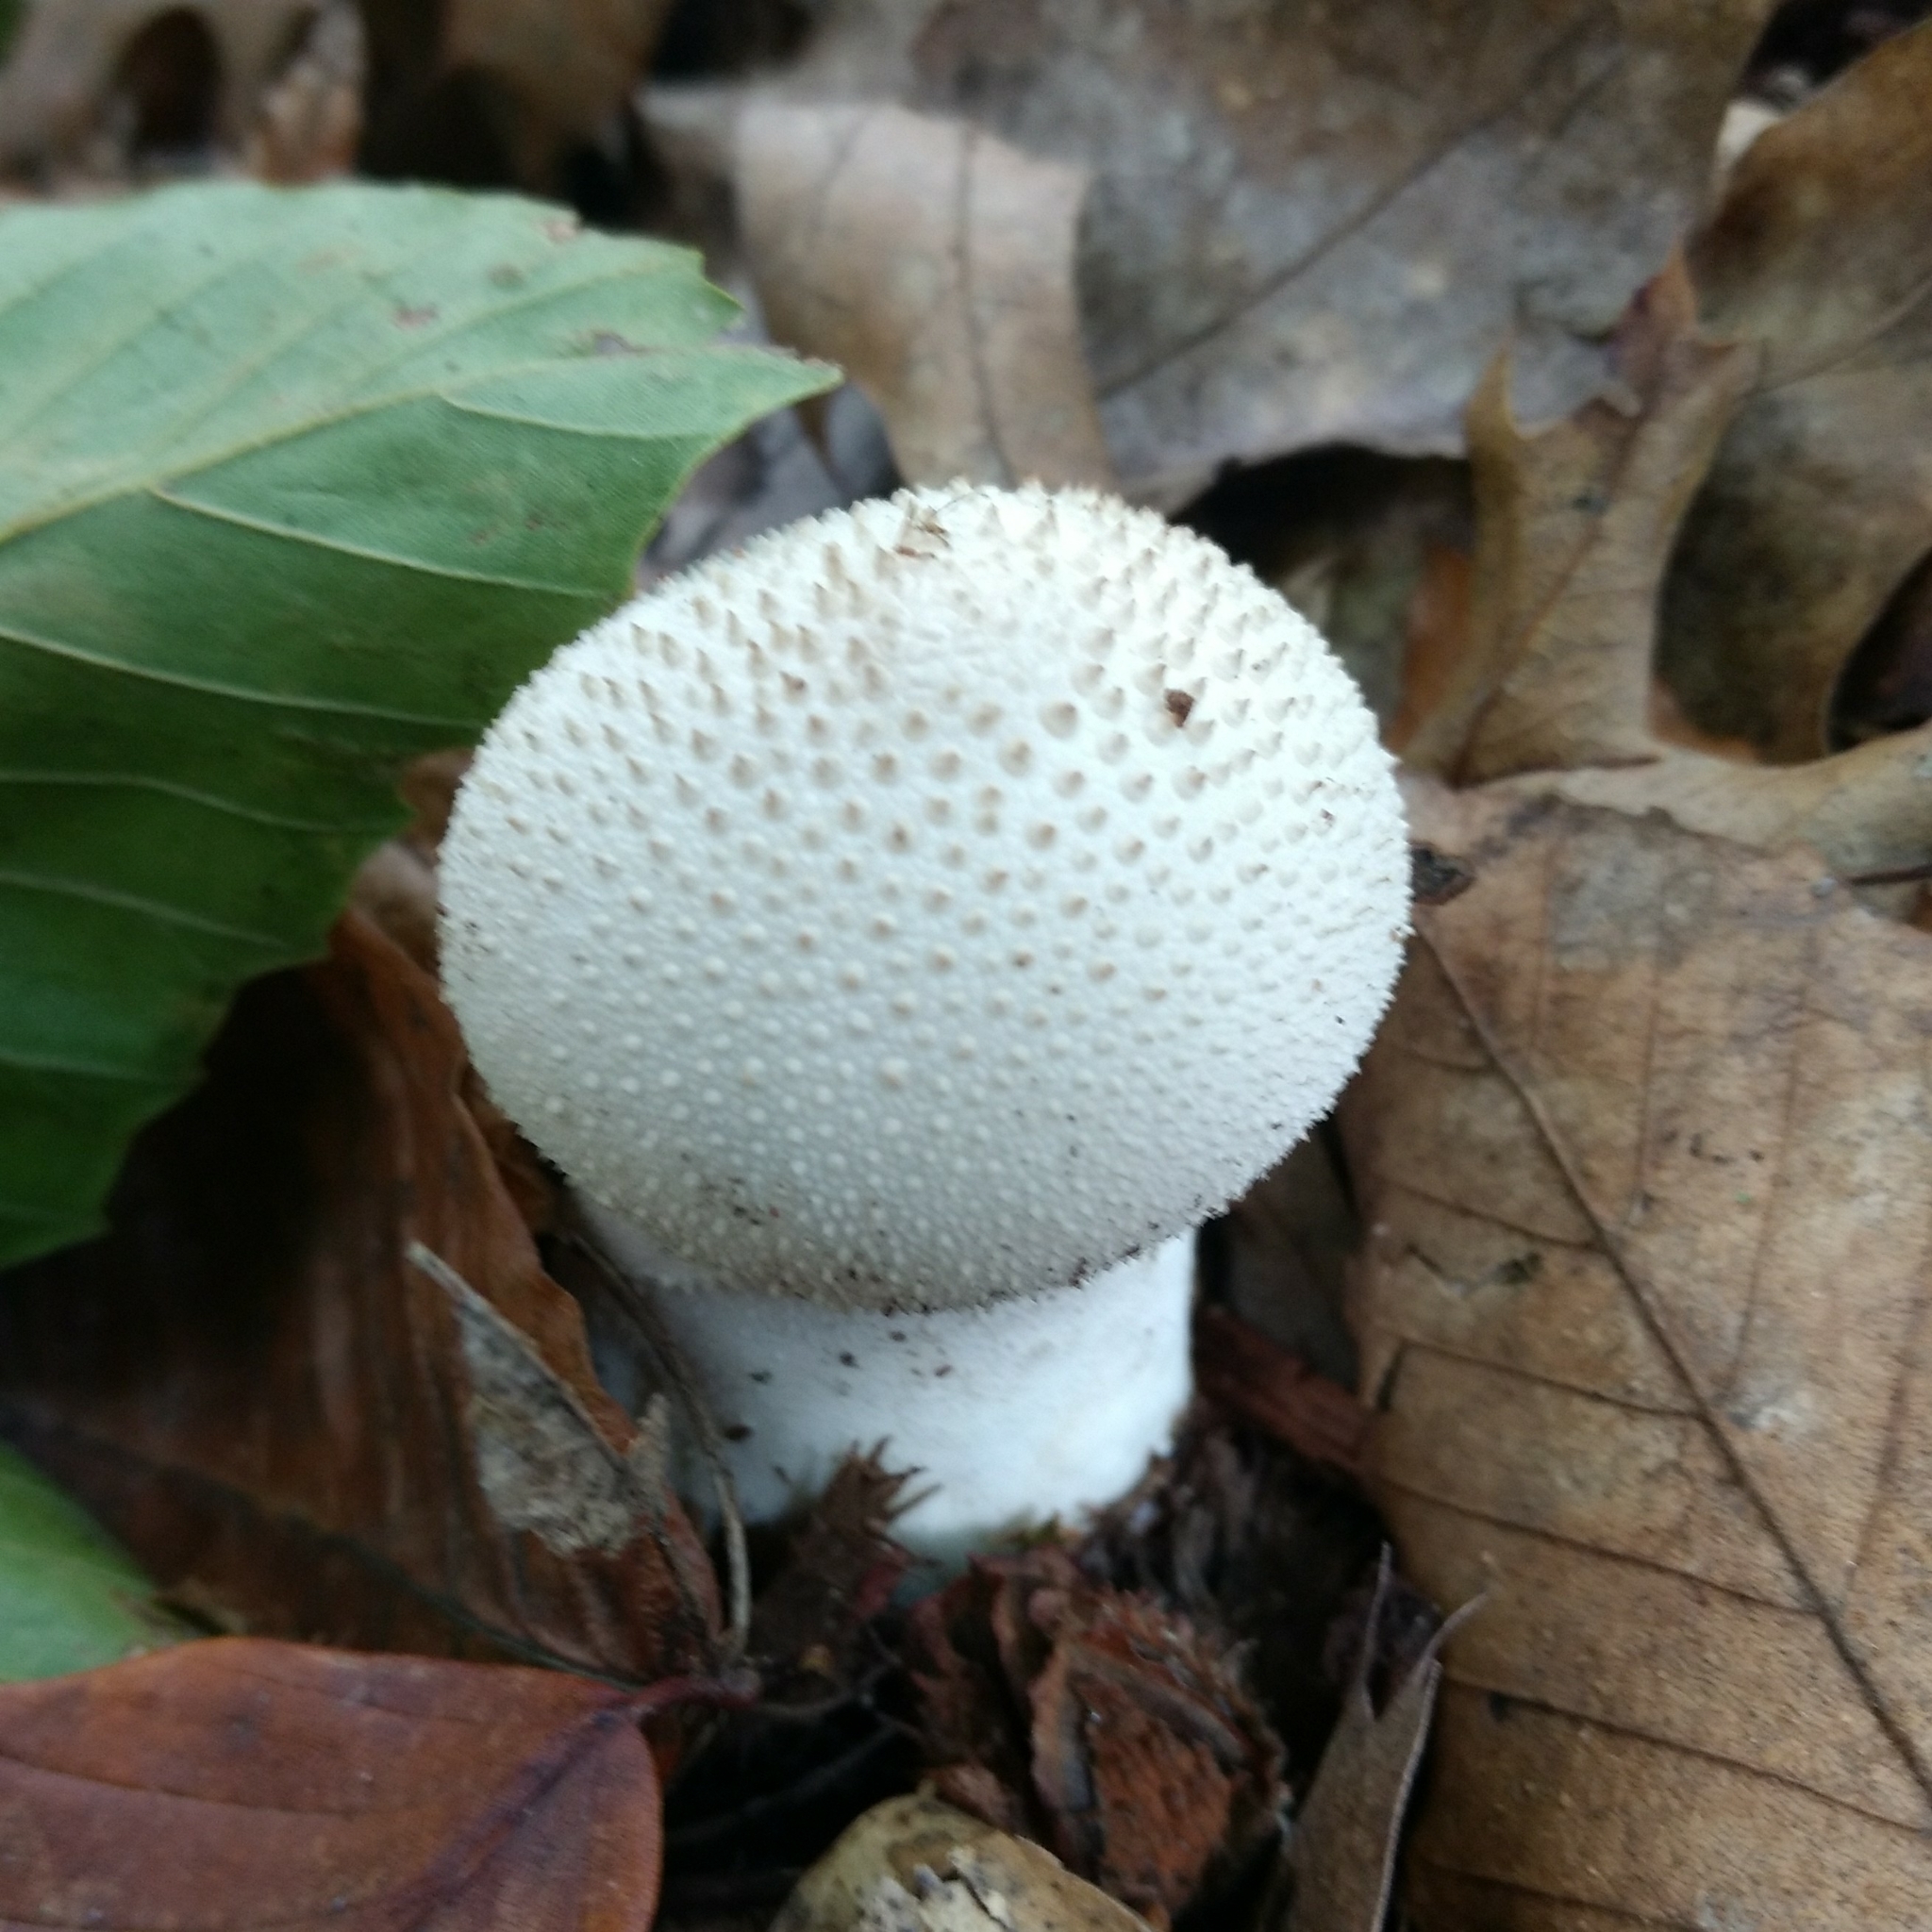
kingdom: Fungi
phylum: Basidiomycota
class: Agaricomycetes
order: Agaricales
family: Lycoperdaceae
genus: Lycoperdon
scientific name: Lycoperdon perlatum
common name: Common puffball
